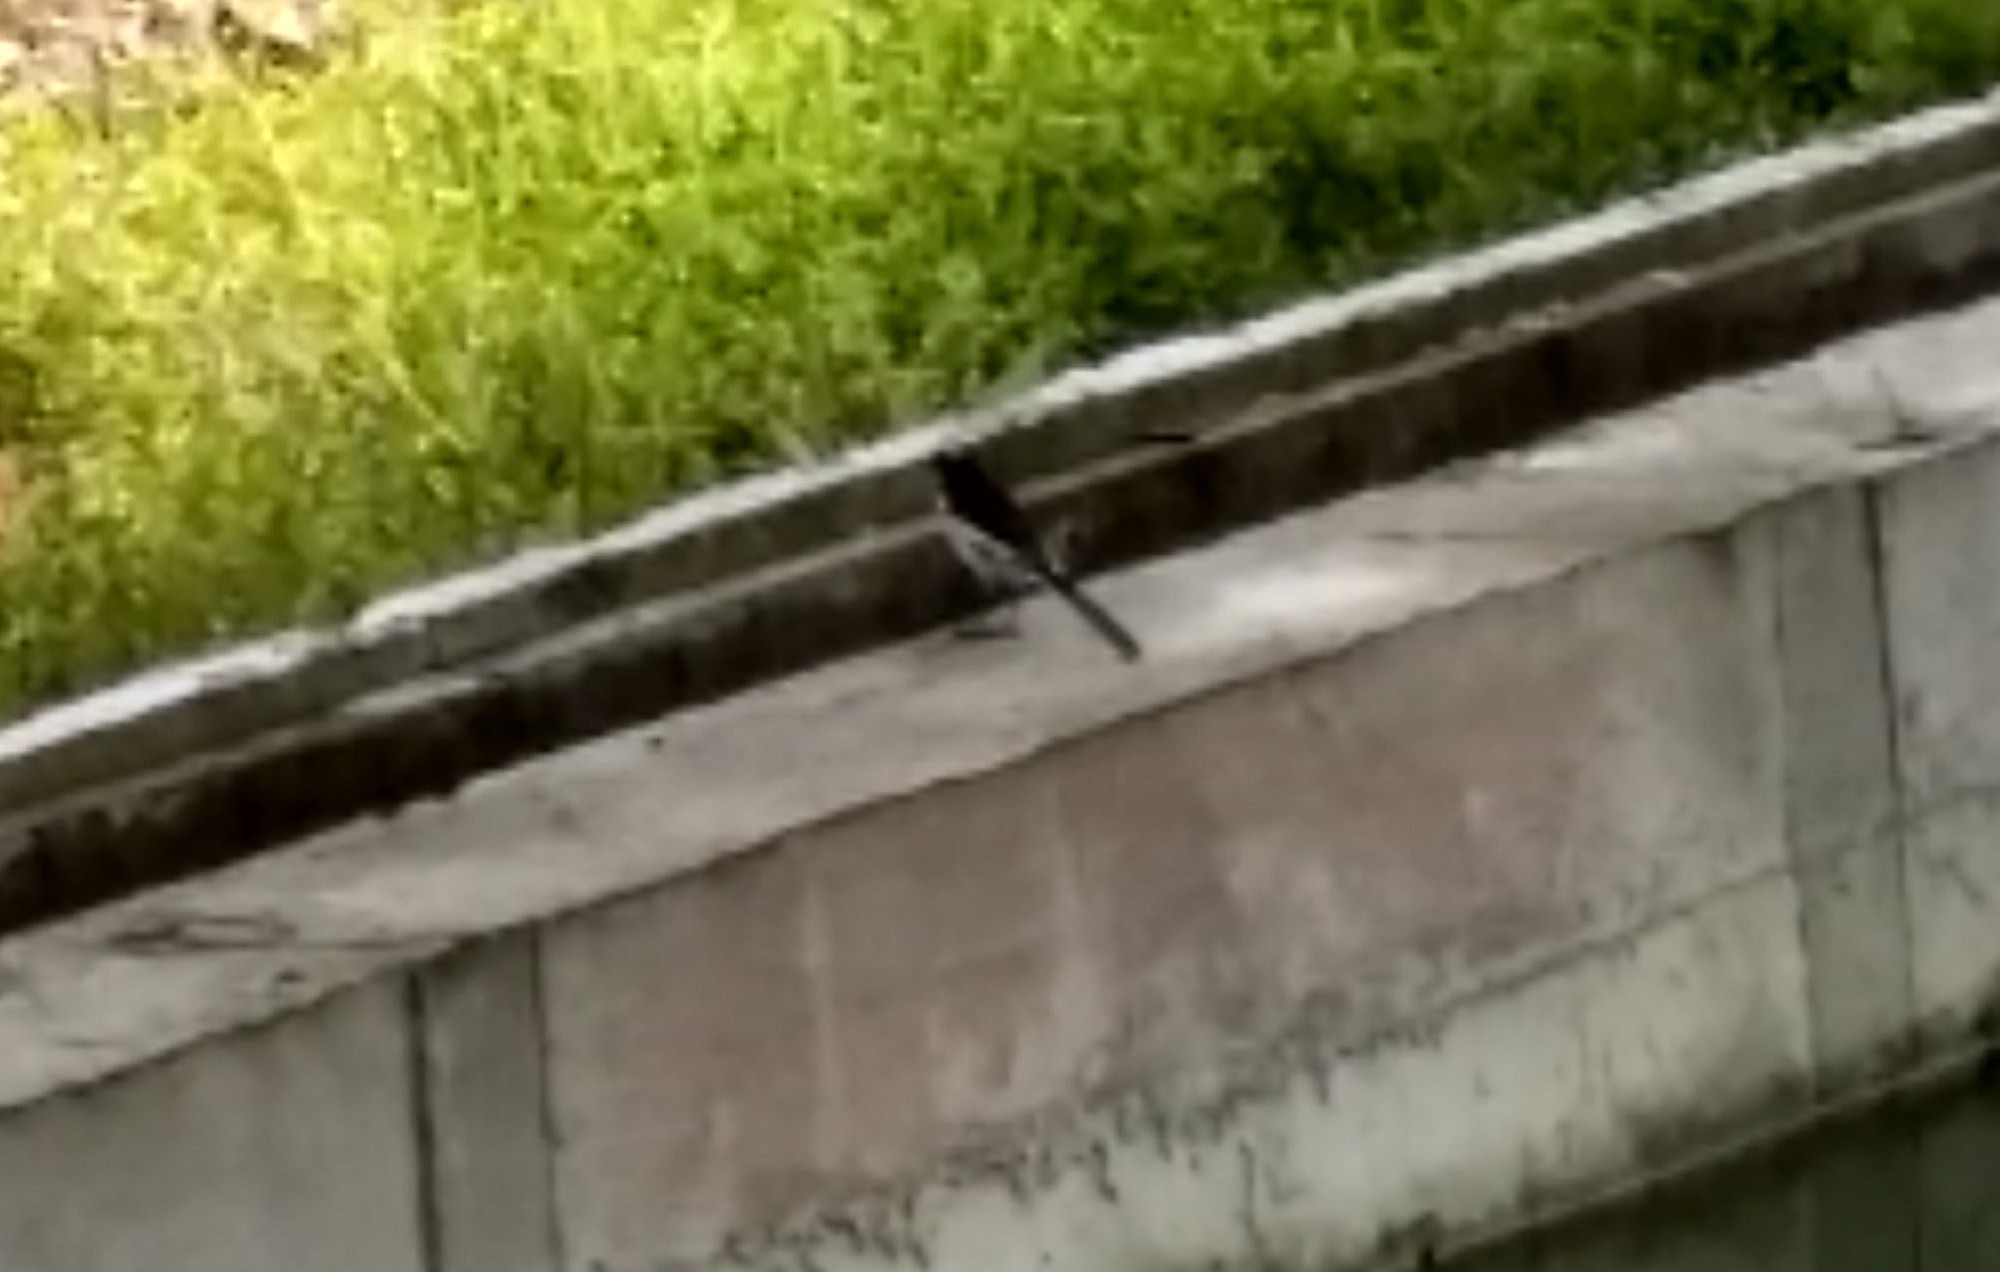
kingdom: Animalia
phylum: Chordata
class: Aves
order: Passeriformes
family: Motacillidae
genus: Motacilla
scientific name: Motacilla maderaspatensis
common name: White-browed wagtail
